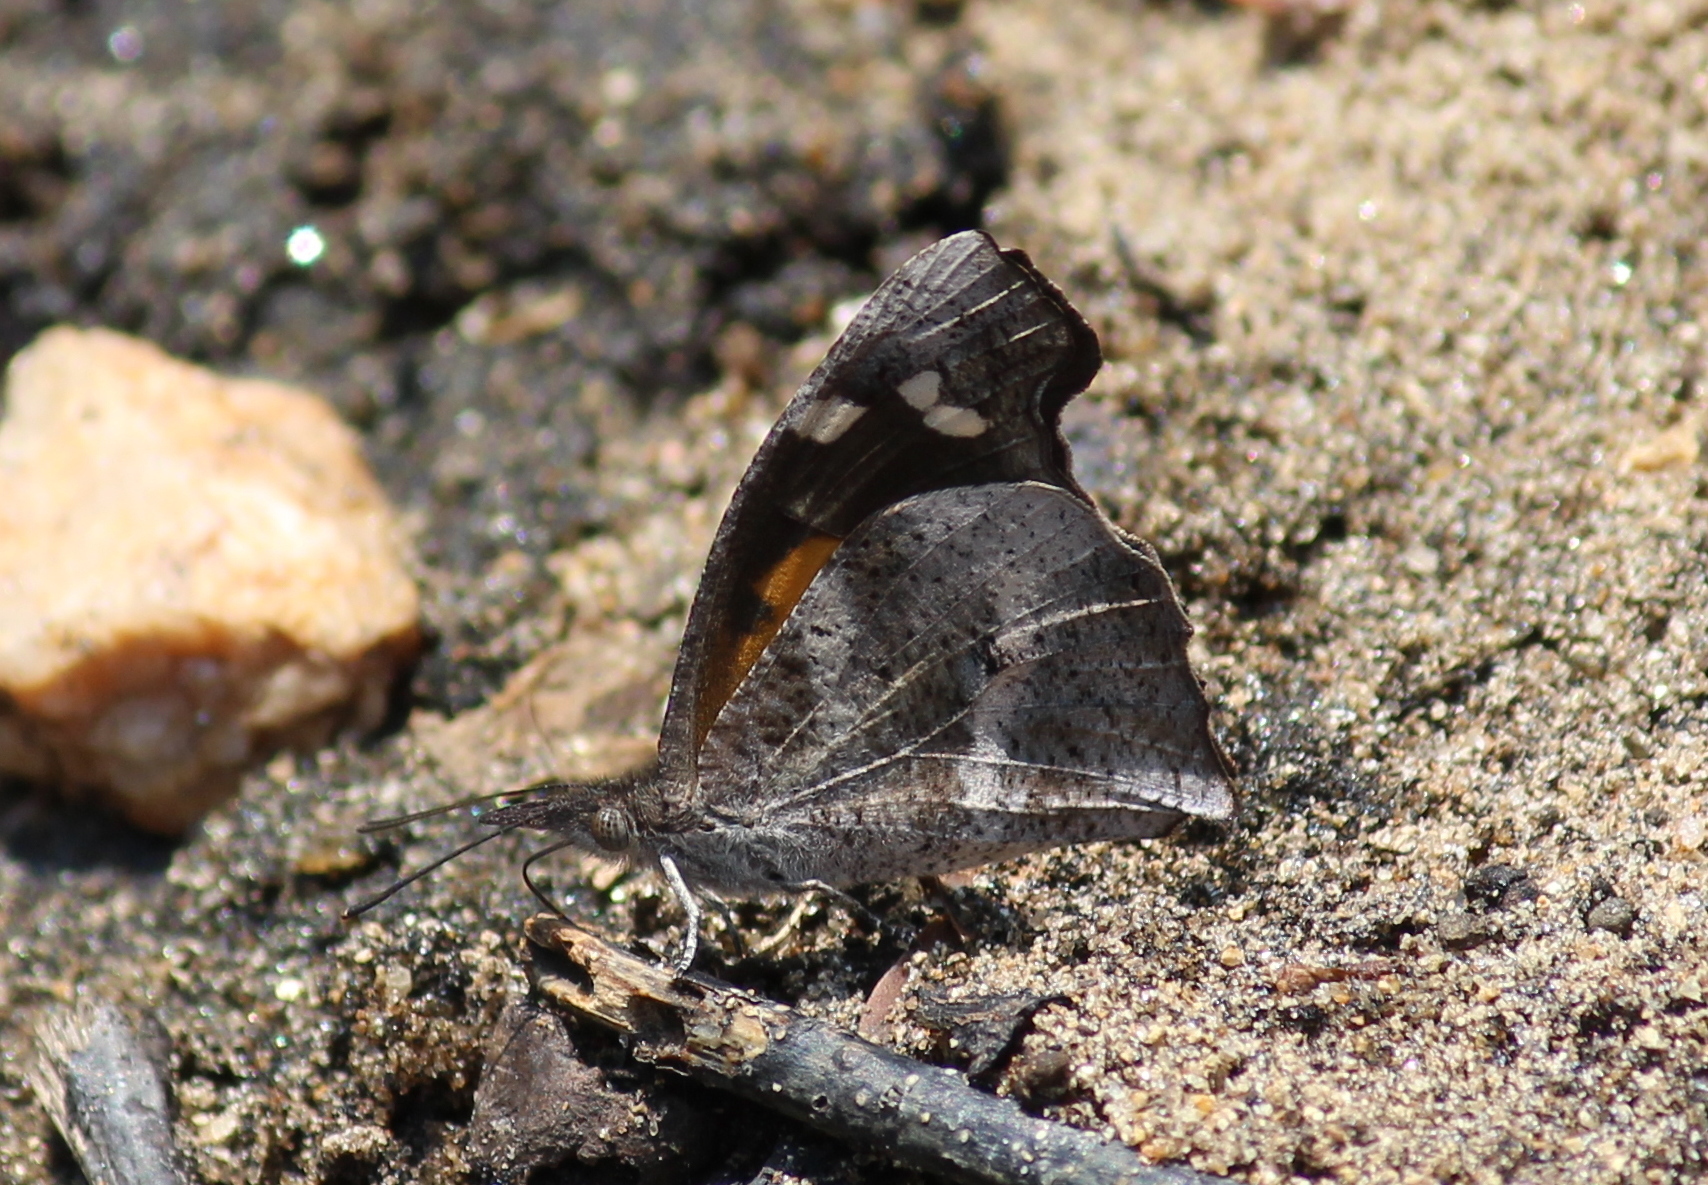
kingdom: Animalia
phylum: Arthropoda
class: Insecta
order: Lepidoptera
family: Nymphalidae
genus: Libythea
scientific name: Libythea laius
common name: African snout
